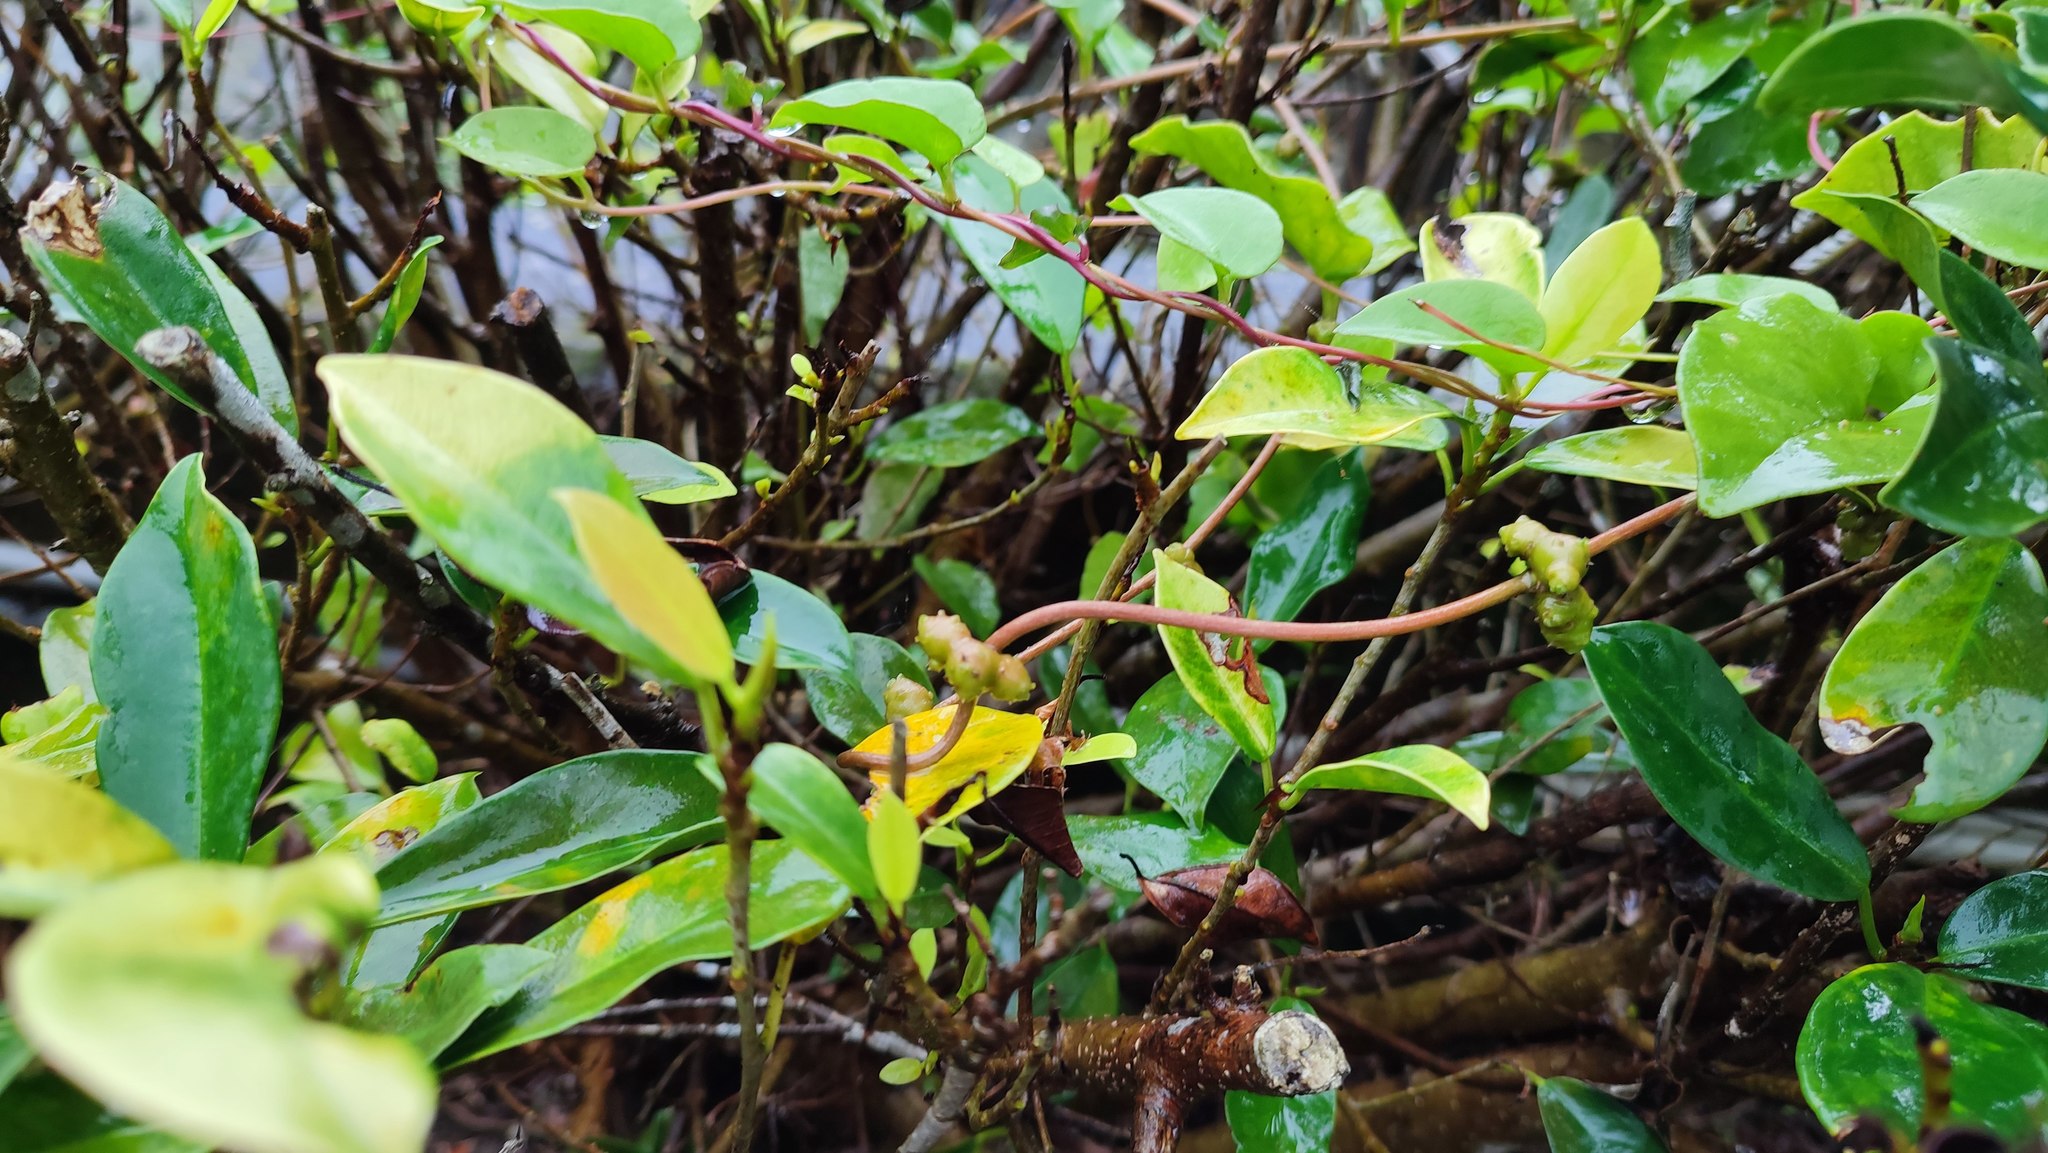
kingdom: Plantae
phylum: Tracheophyta
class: Magnoliopsida
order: Rosales
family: Moraceae
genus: Ficus
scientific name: Ficus microcarpa
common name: Chinese banyan
